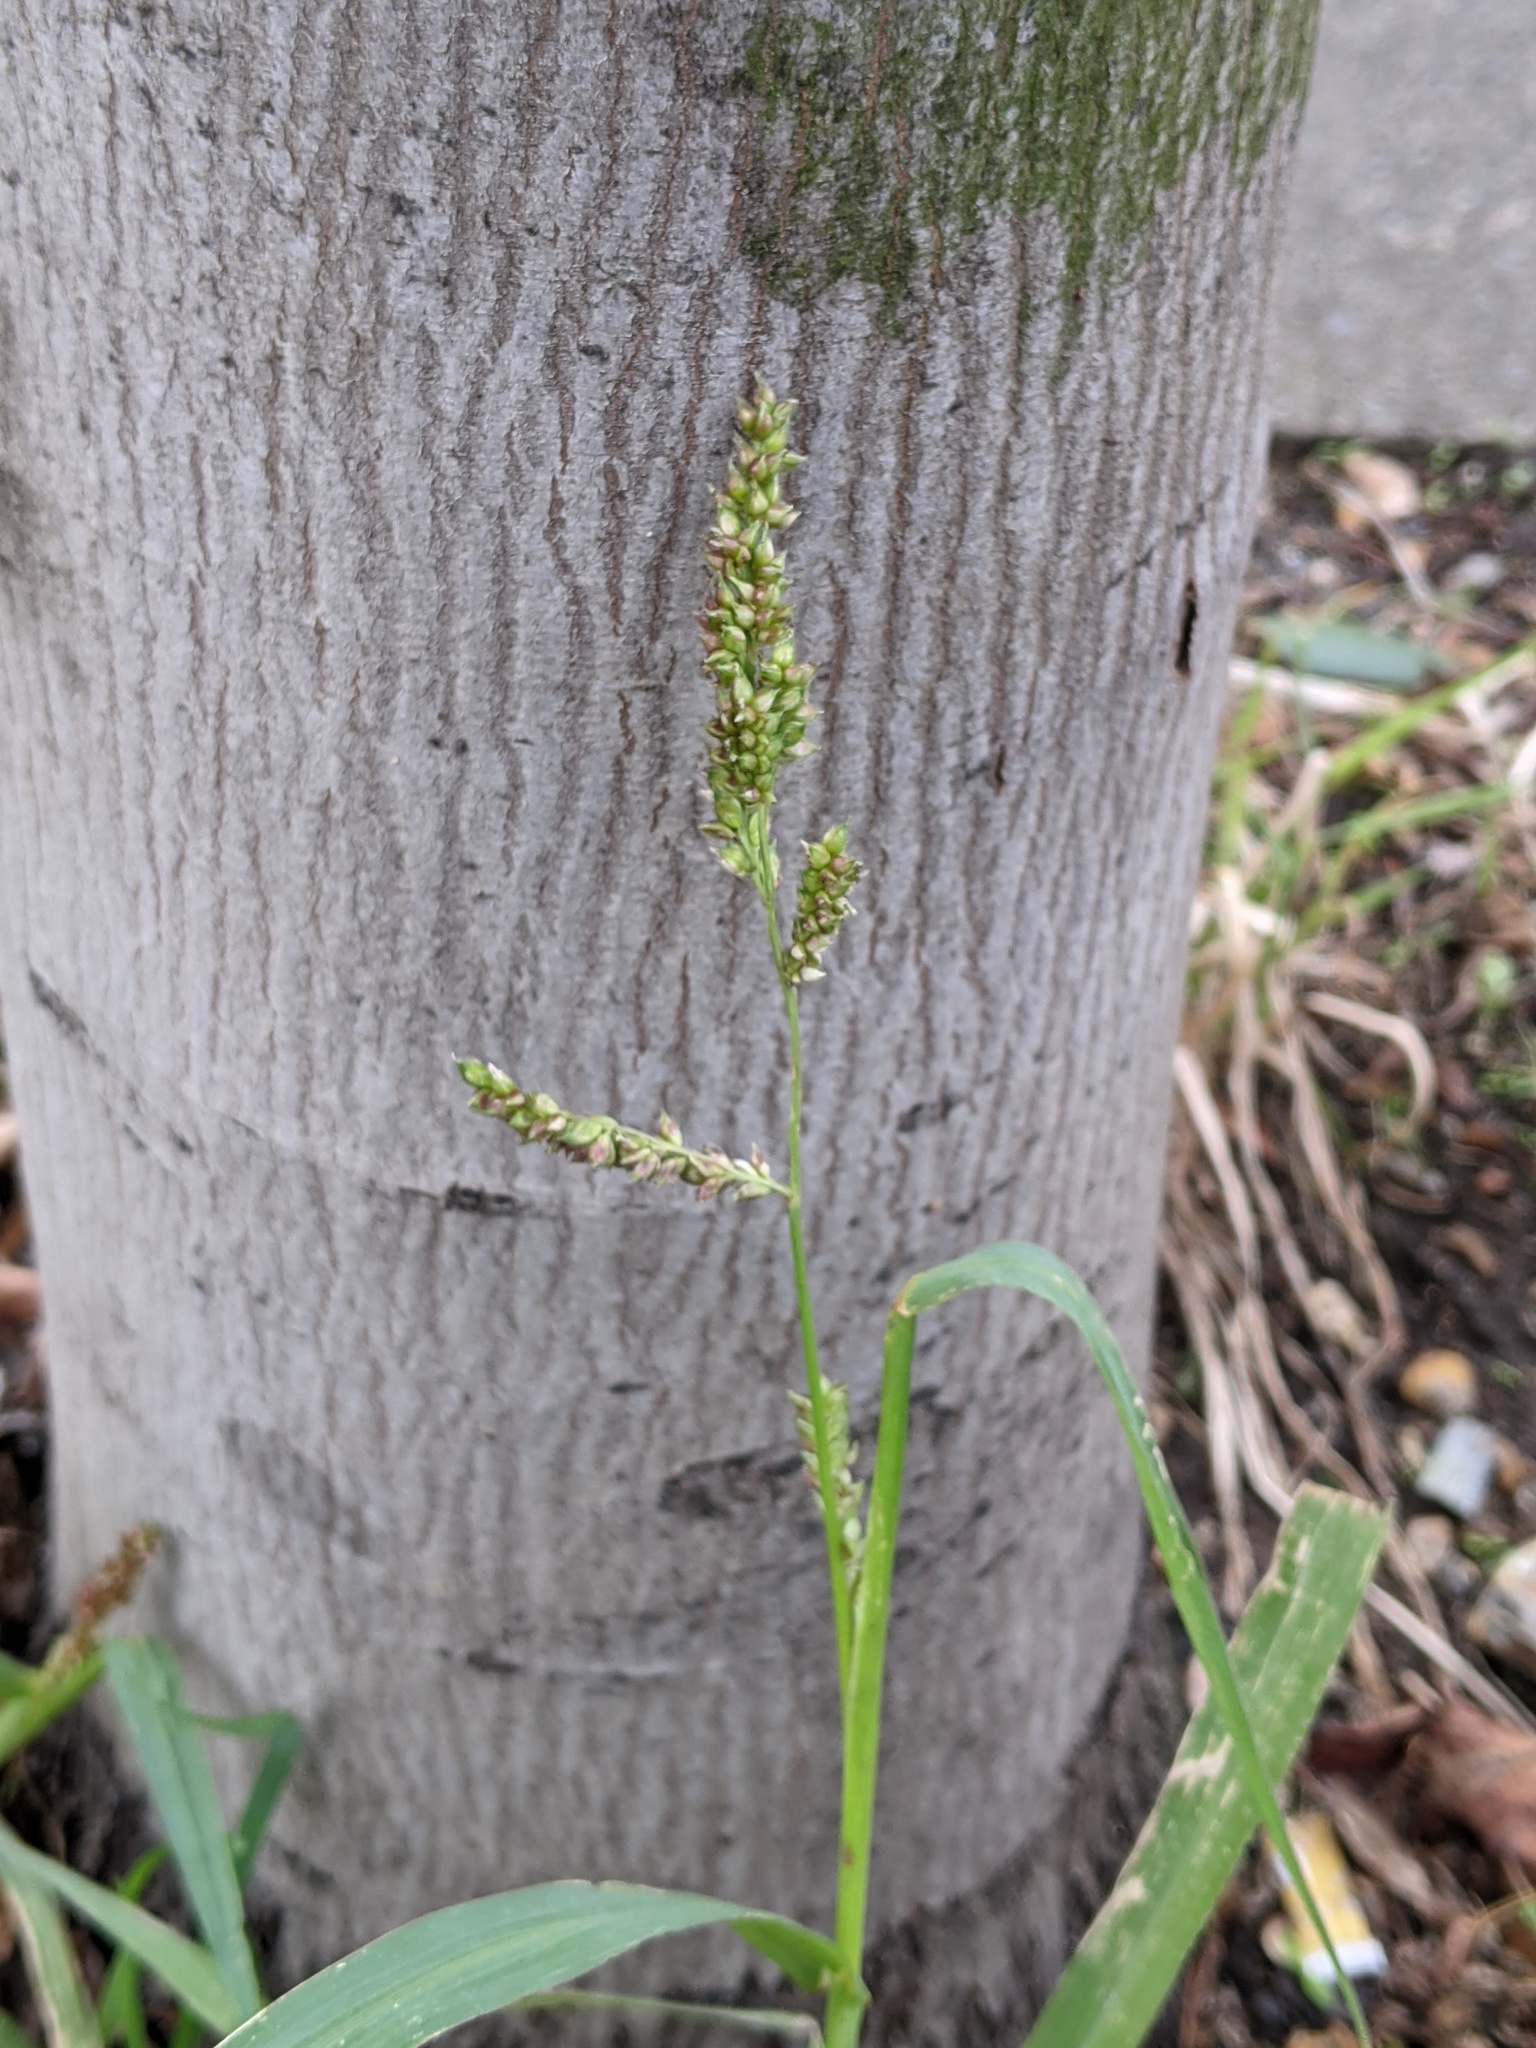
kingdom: Plantae
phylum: Tracheophyta
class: Liliopsida
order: Poales
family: Poaceae
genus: Echinochloa
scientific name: Echinochloa crus-galli
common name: Cockspur
